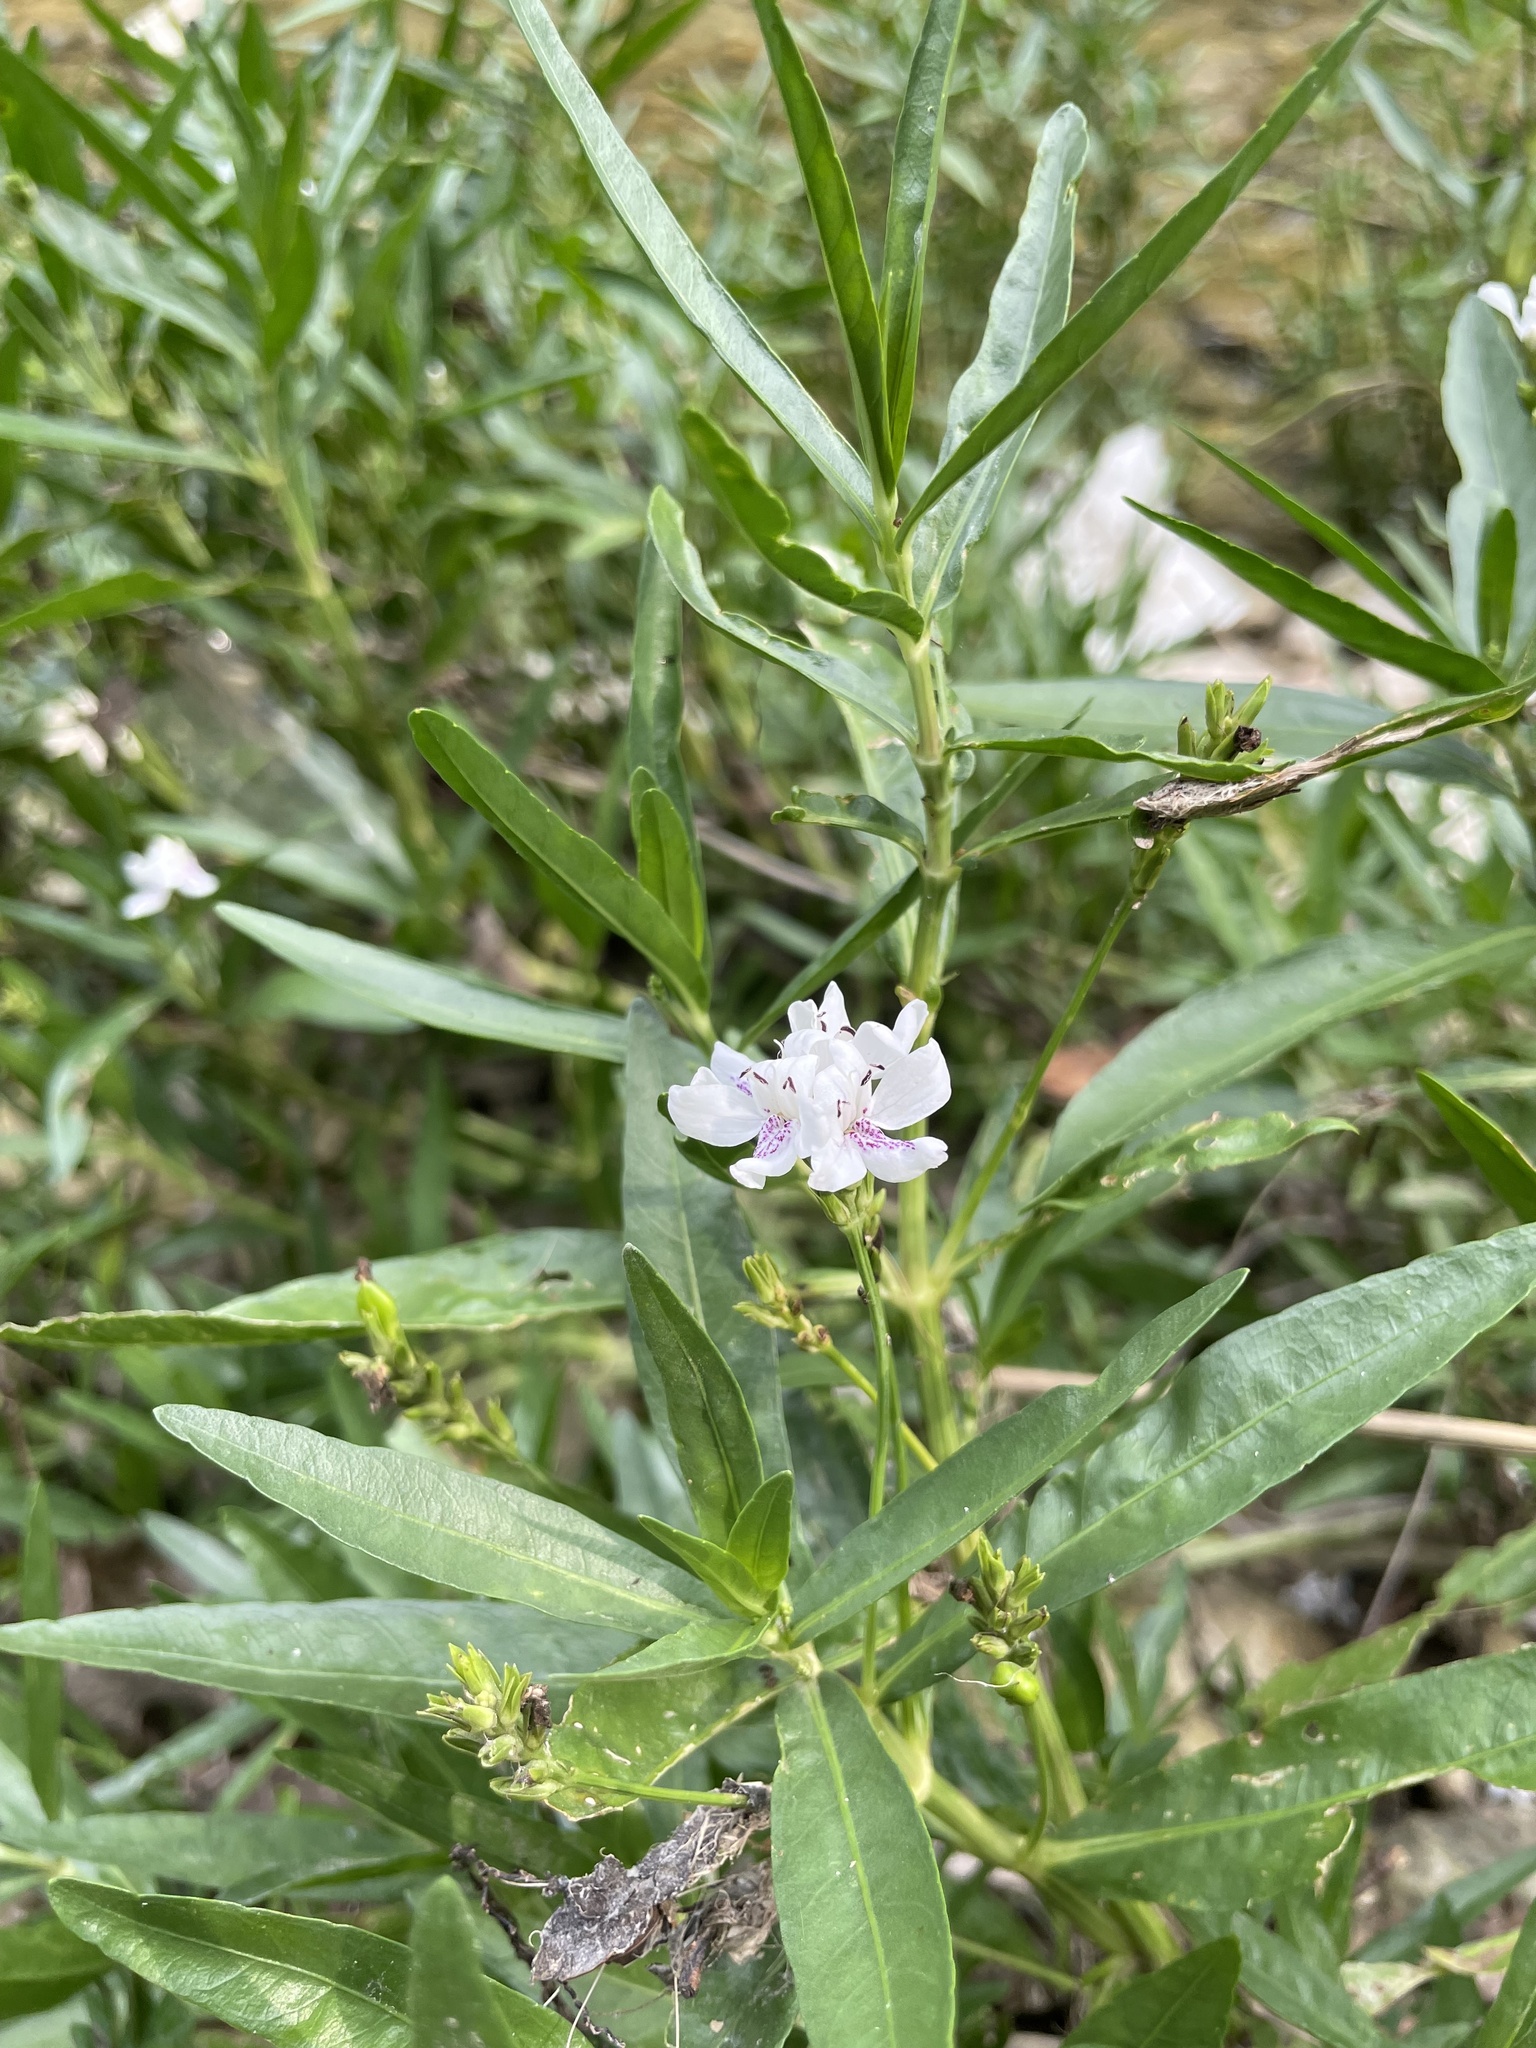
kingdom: Plantae
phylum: Tracheophyta
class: Magnoliopsida
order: Lamiales
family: Acanthaceae
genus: Dianthera
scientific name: Dianthera americana
